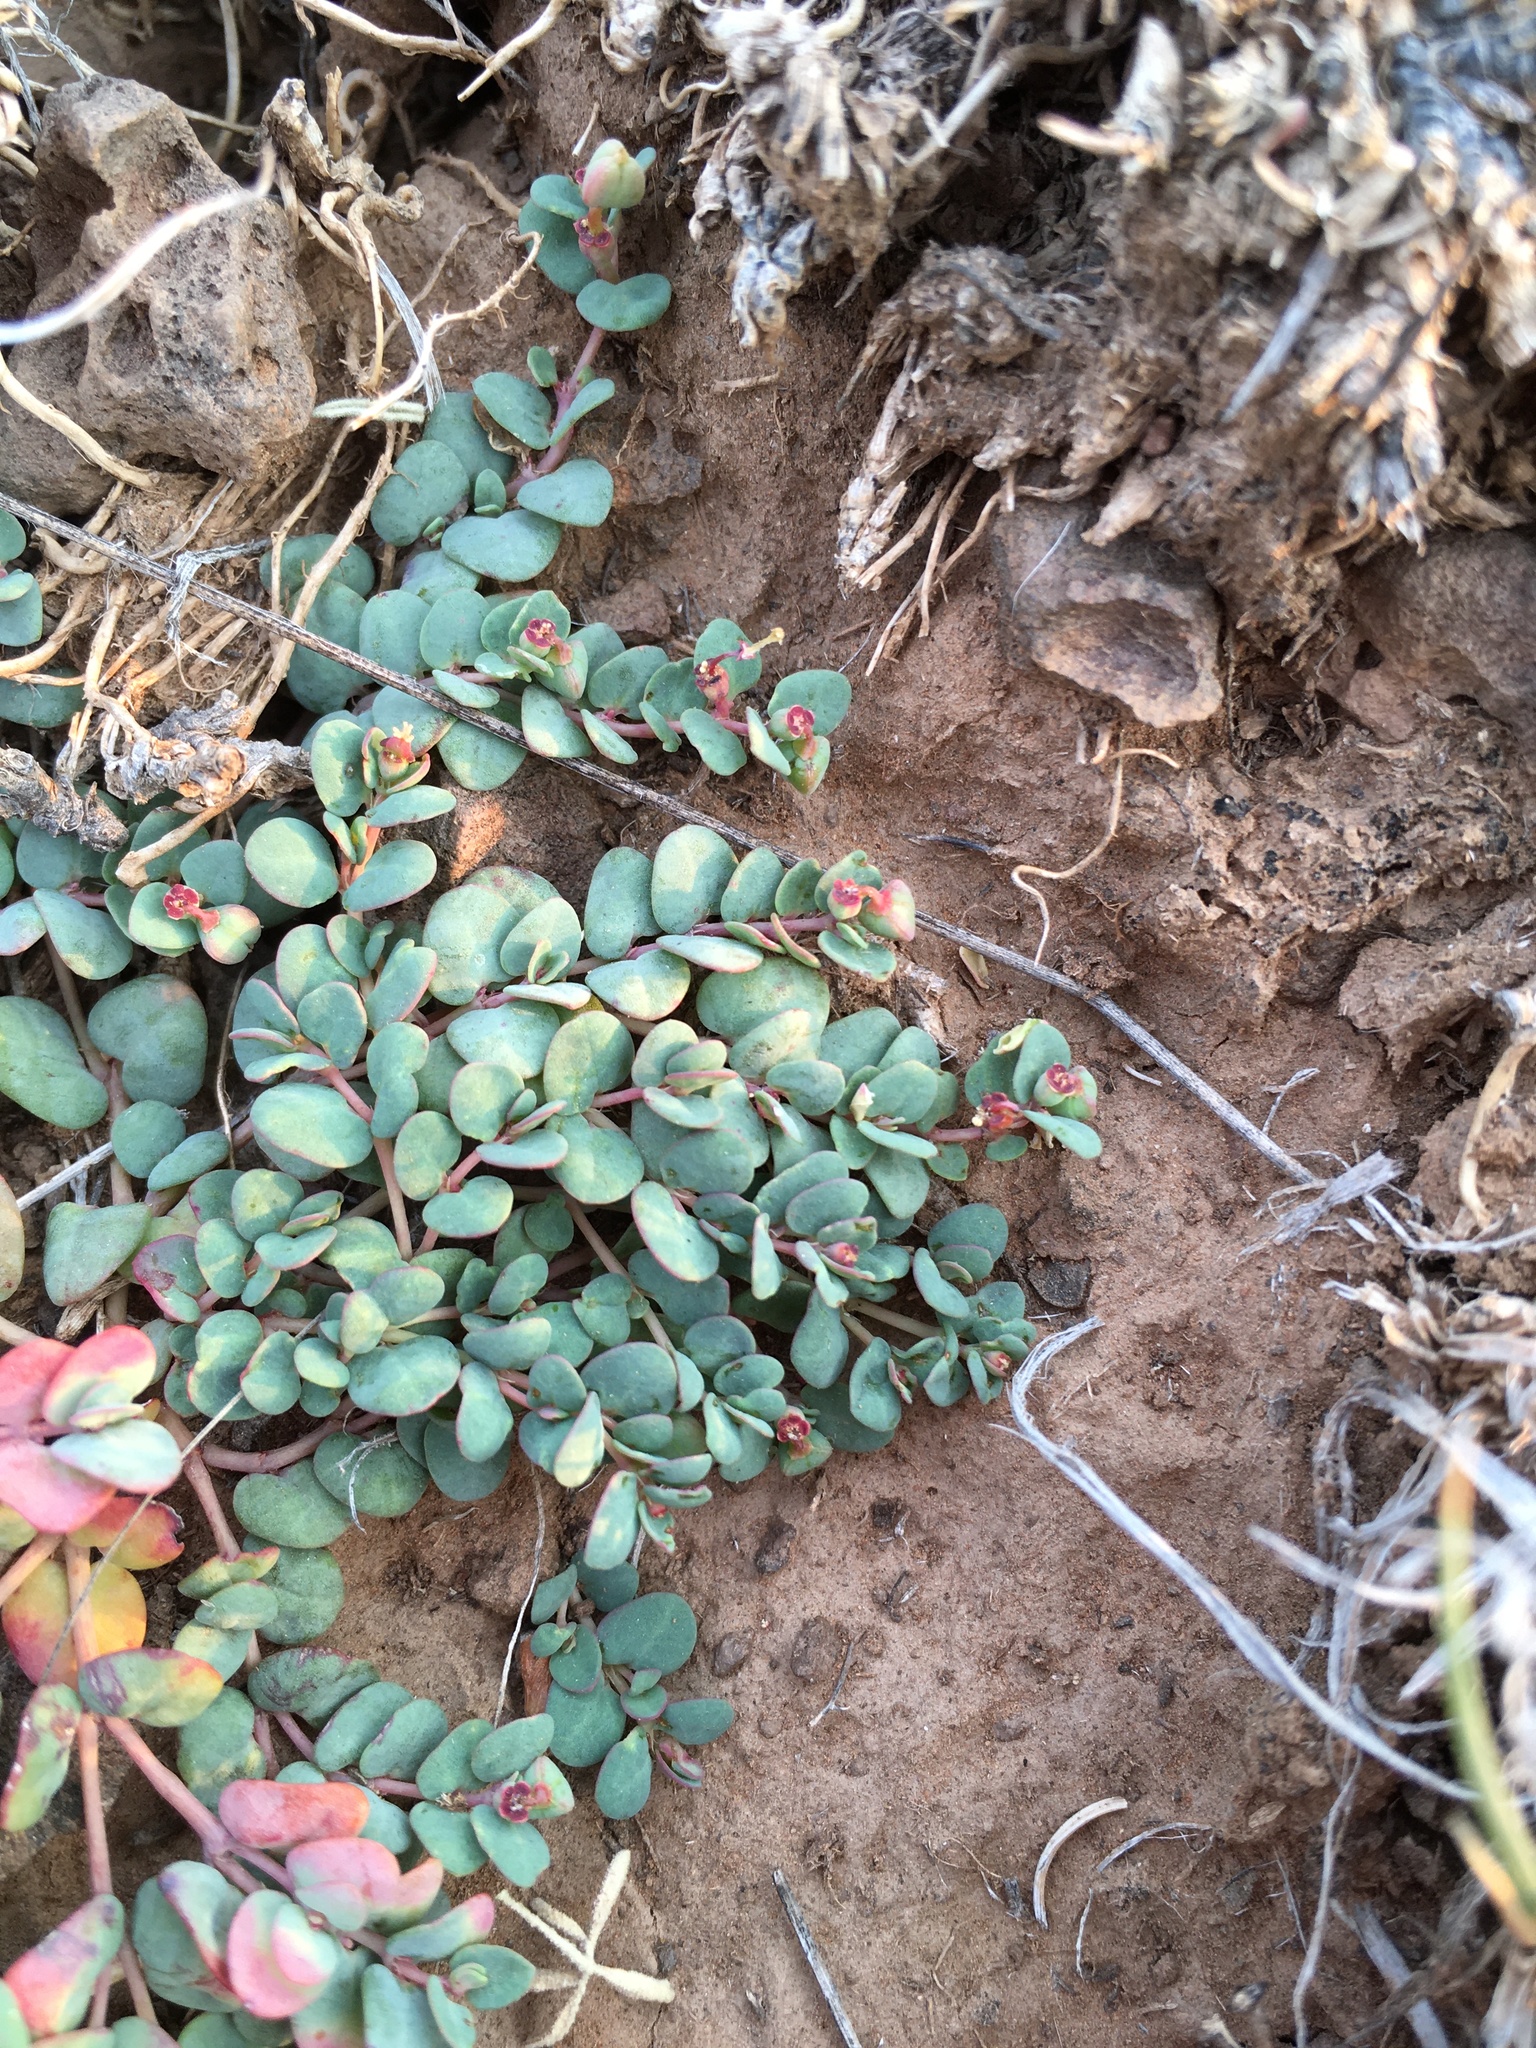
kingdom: Plantae
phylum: Tracheophyta
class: Magnoliopsida
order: Malpighiales
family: Euphorbiaceae
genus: Euphorbia
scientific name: Euphorbia fendleri
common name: Fendler's euphorbia
